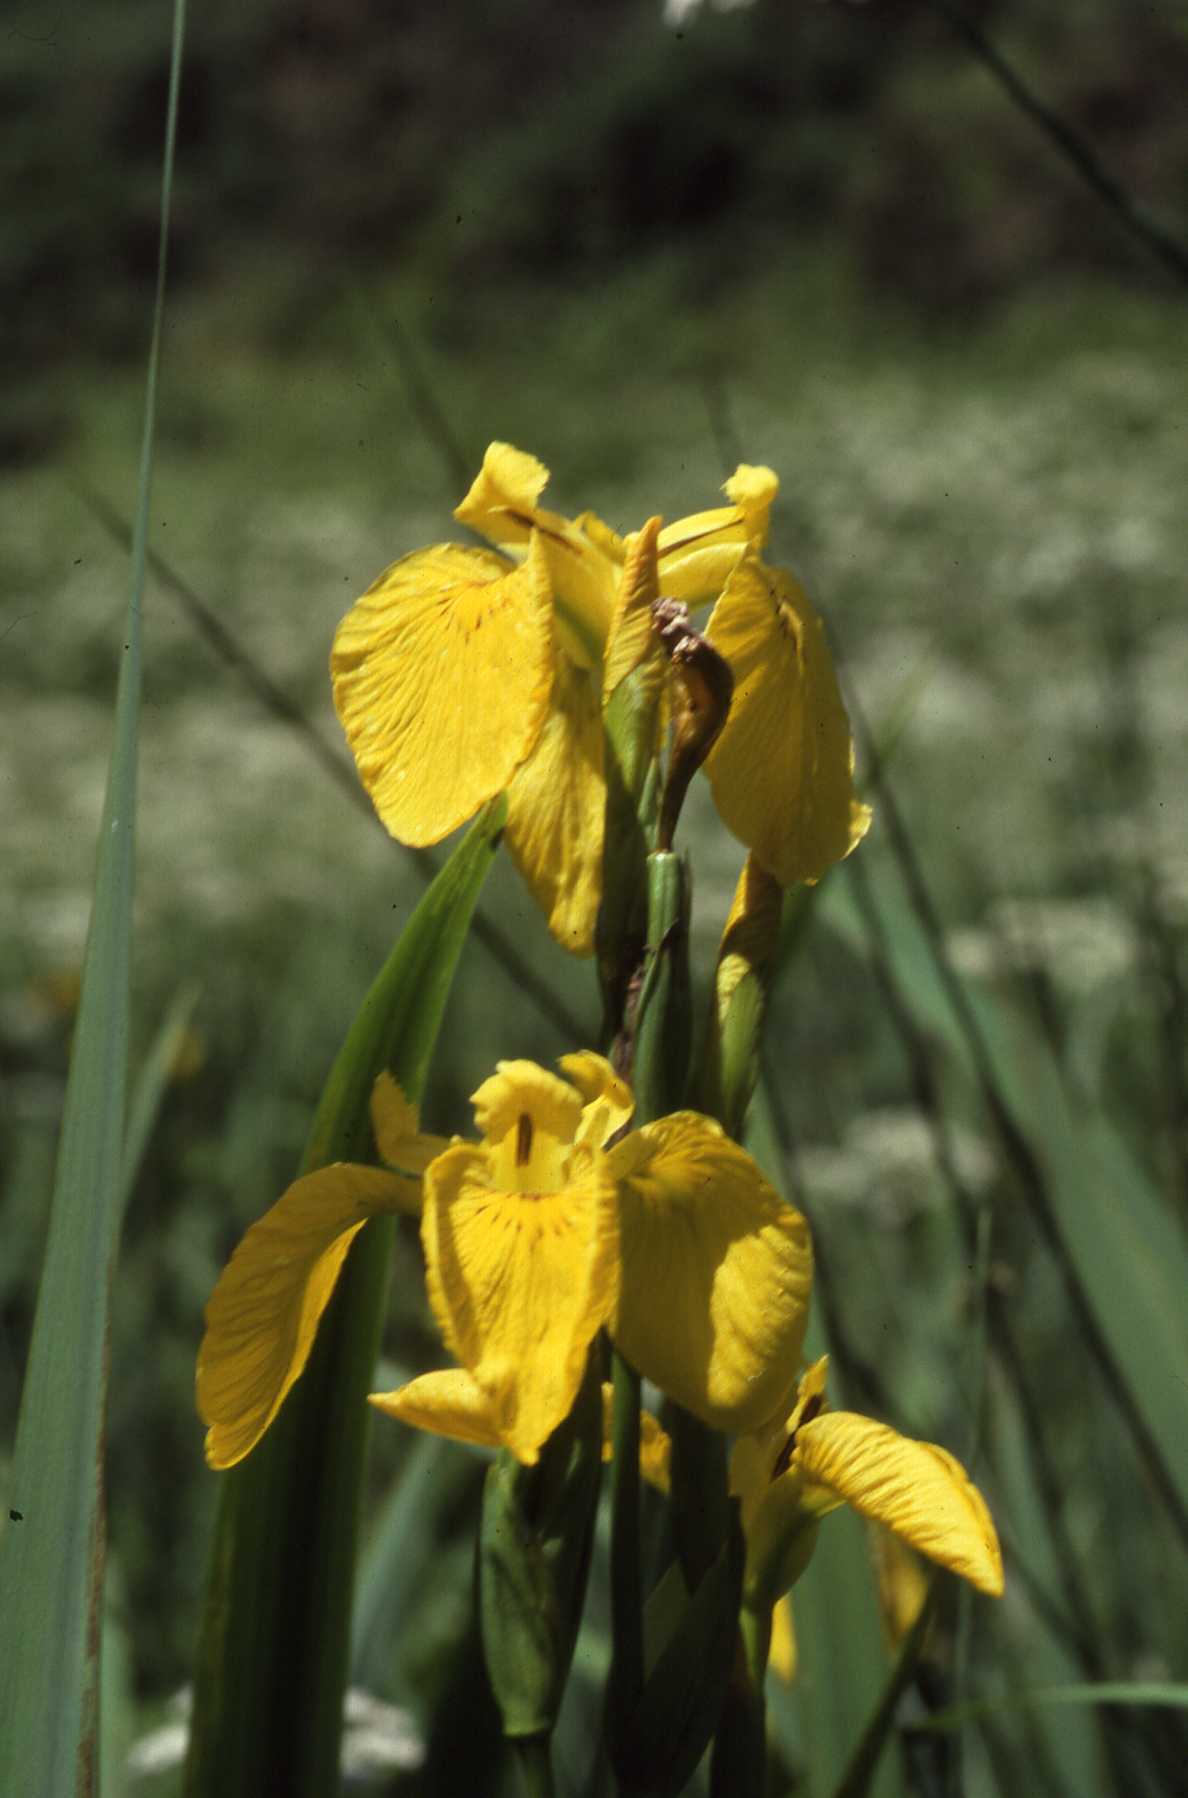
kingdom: Plantae
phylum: Tracheophyta
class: Liliopsida
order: Asparagales
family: Iridaceae
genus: Iris
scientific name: Iris pseudacorus
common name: Yellow flag
